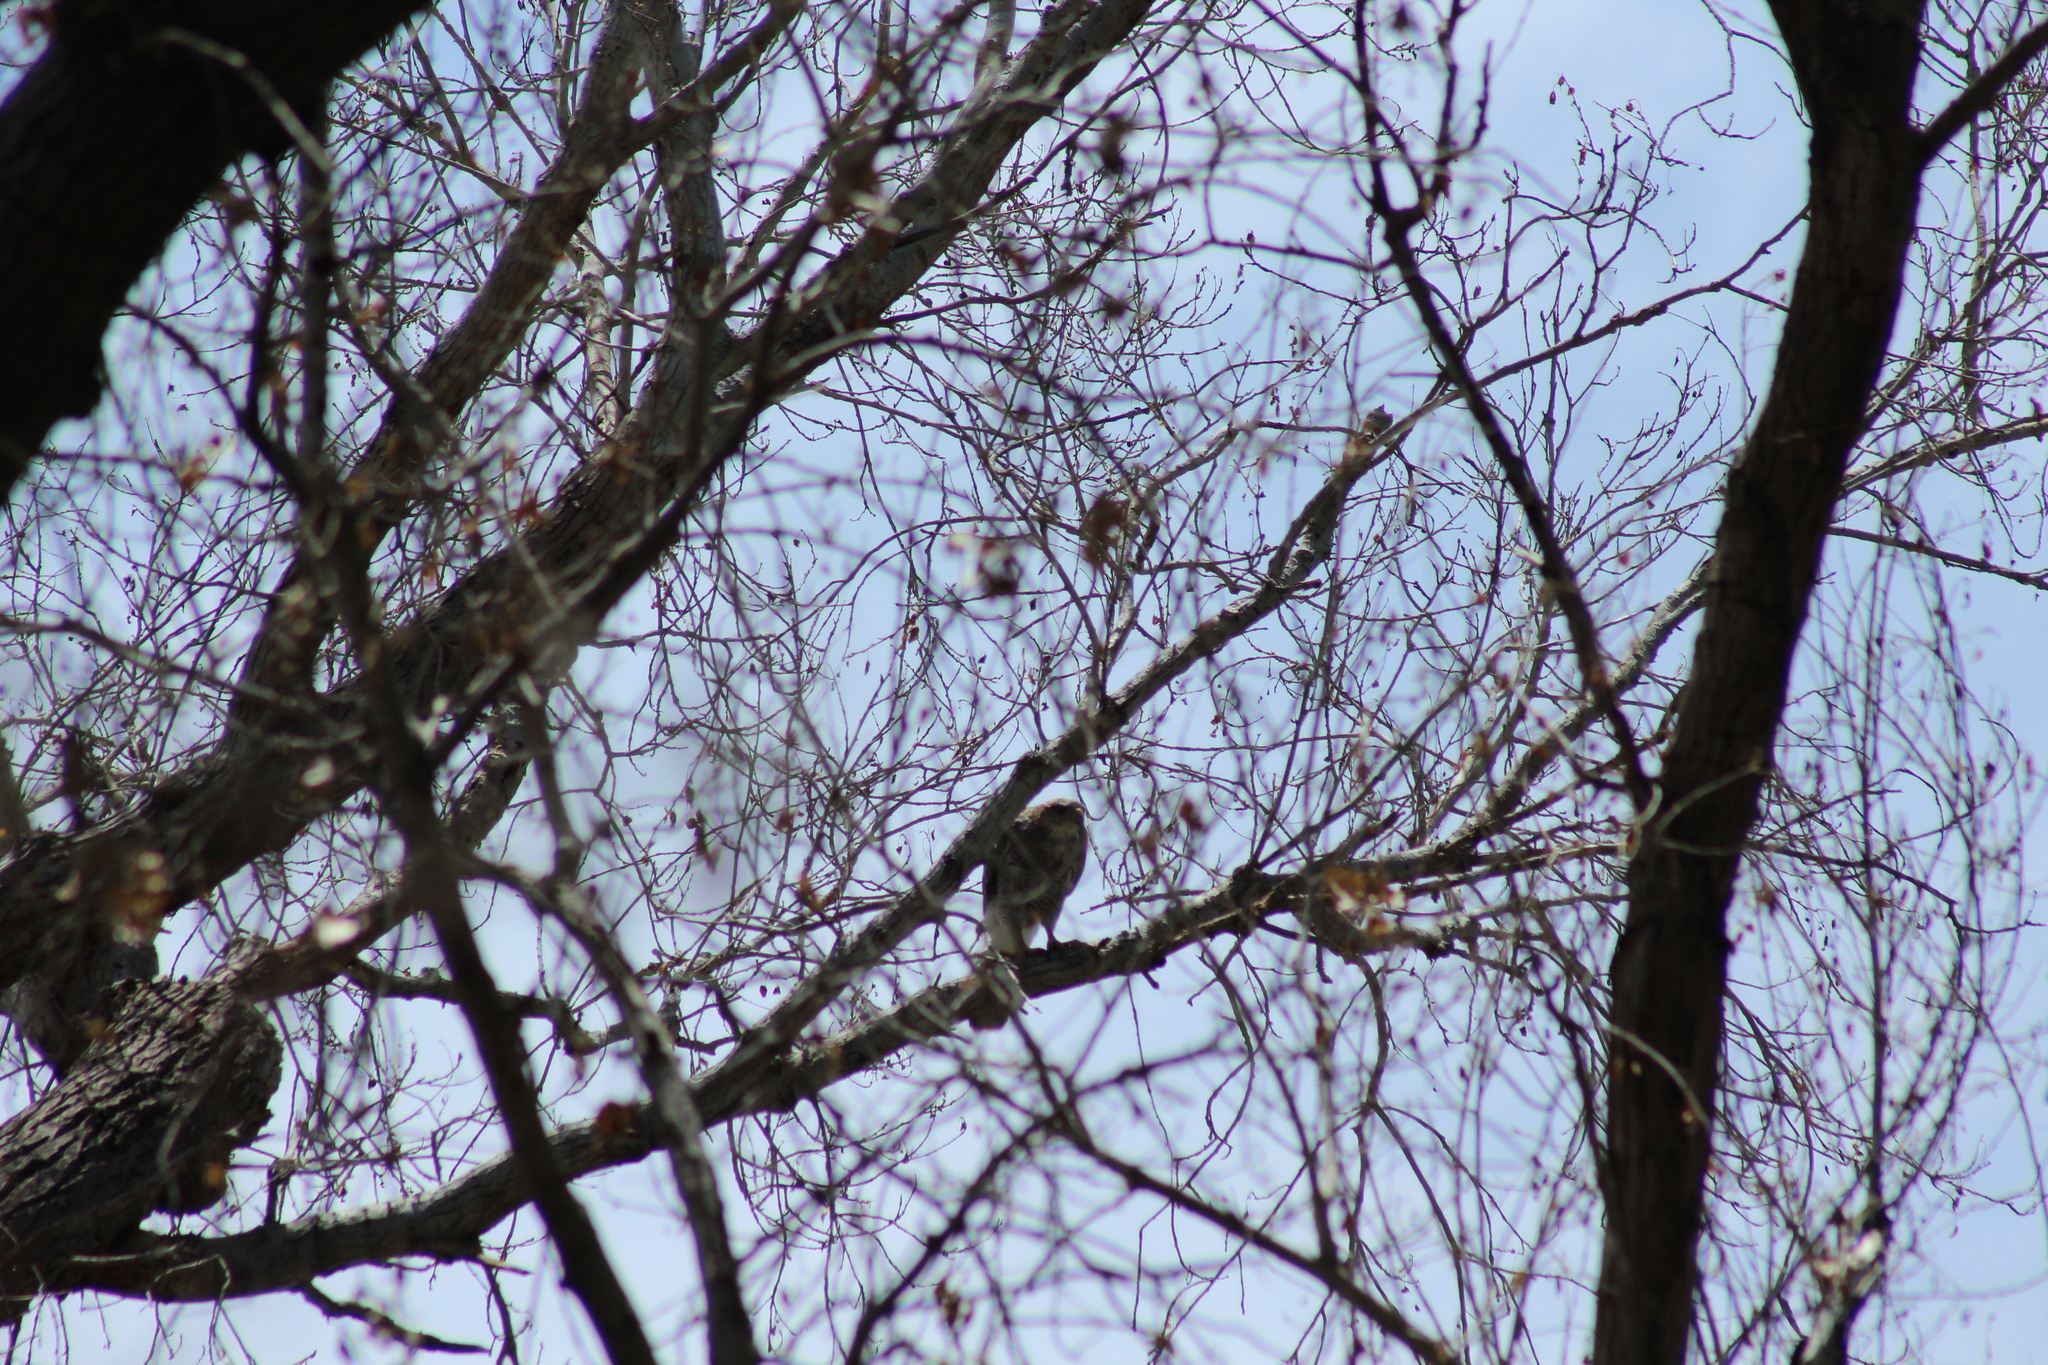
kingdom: Animalia
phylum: Chordata
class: Aves
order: Accipitriformes
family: Accipitridae
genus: Buteo
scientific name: Buteo nitidus
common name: Grey-lined hawk
